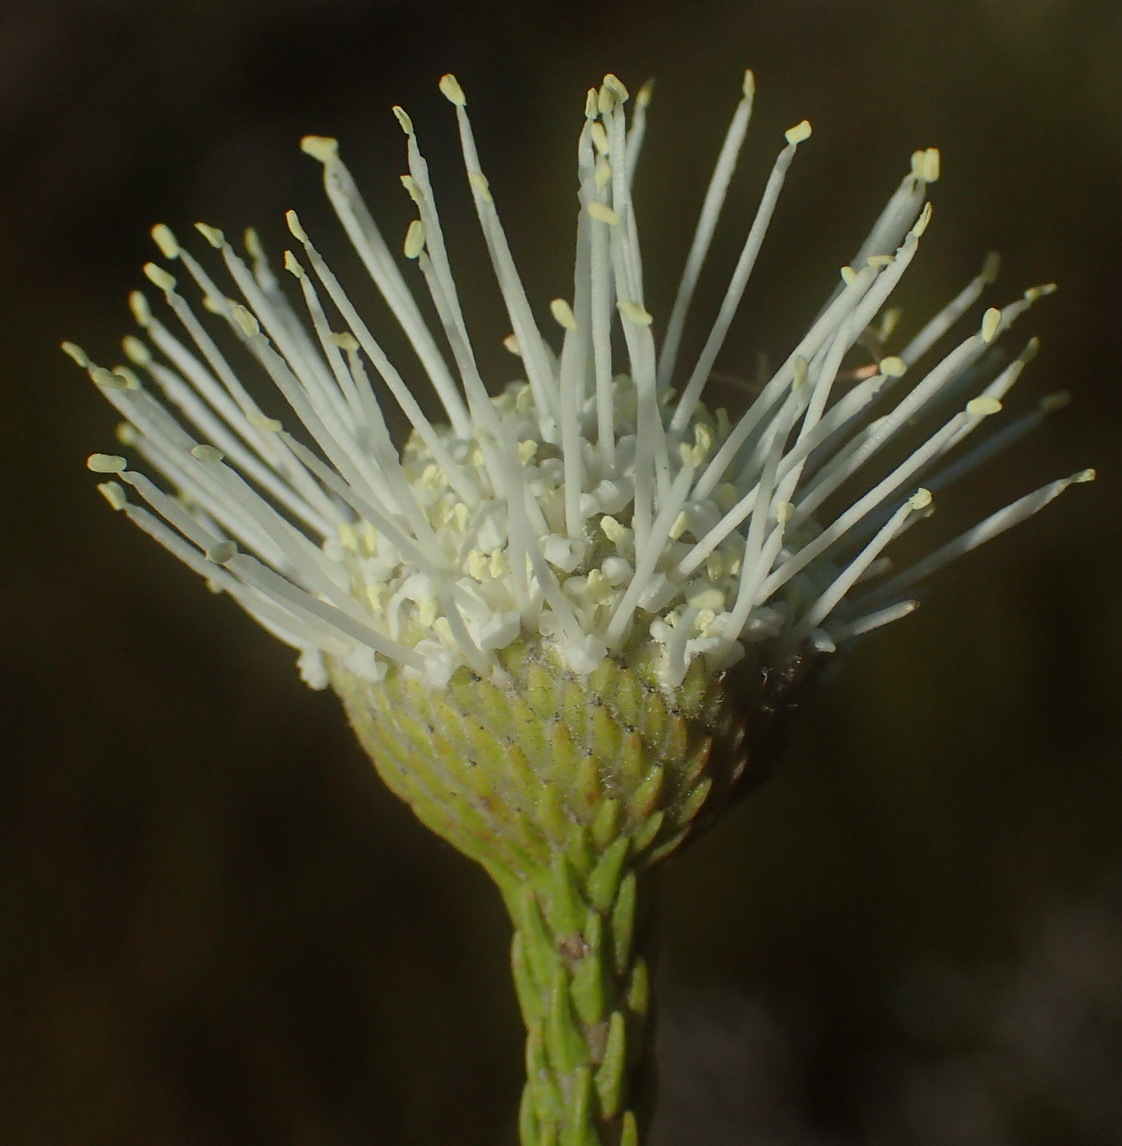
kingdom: Plantae
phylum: Tracheophyta
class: Magnoliopsida
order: Bruniales
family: Bruniaceae
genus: Brunia
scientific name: Brunia noduliflora
